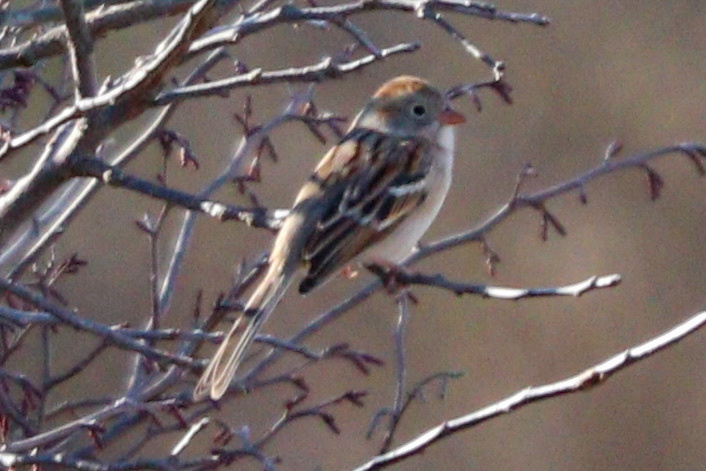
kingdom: Animalia
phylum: Chordata
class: Aves
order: Passeriformes
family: Passerellidae
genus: Spizella
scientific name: Spizella pusilla
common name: Field sparrow
